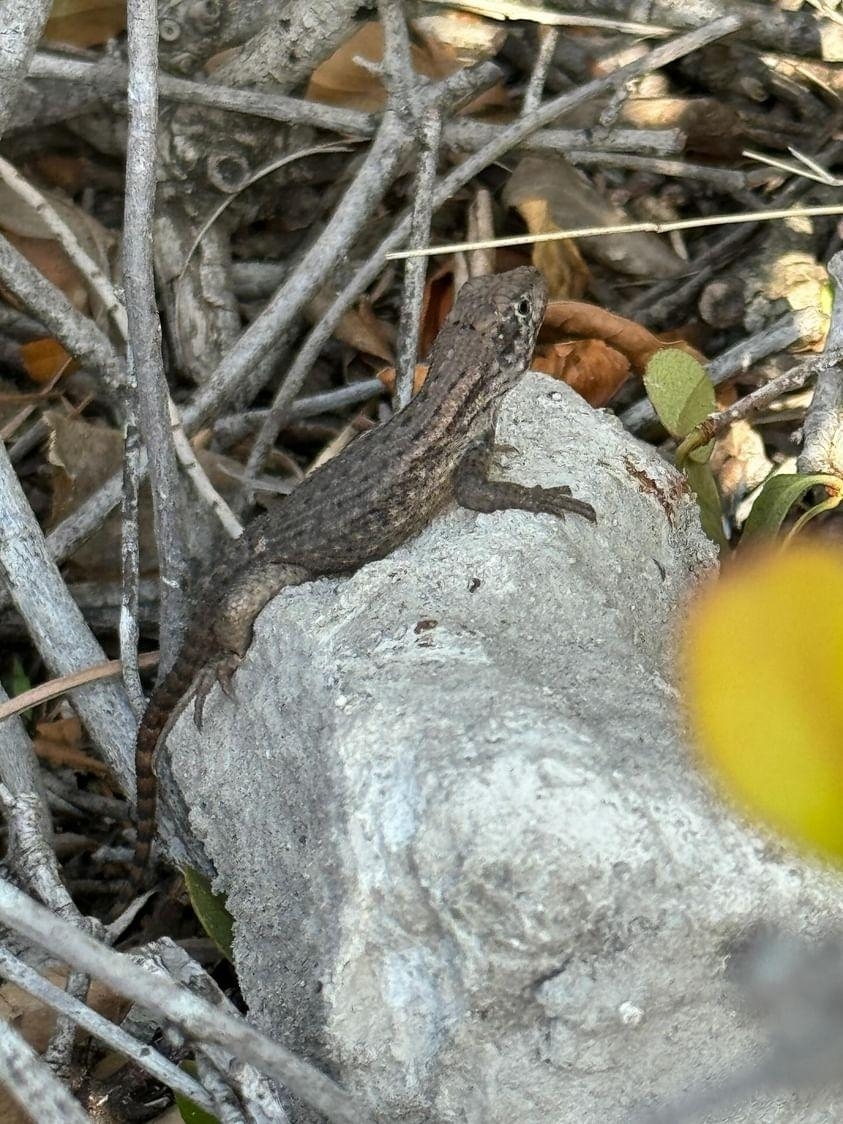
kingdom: Animalia
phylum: Chordata
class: Squamata
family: Leiocephalidae
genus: Leiocephalus
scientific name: Leiocephalus carinatus
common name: Northern curly-tailed lizard
